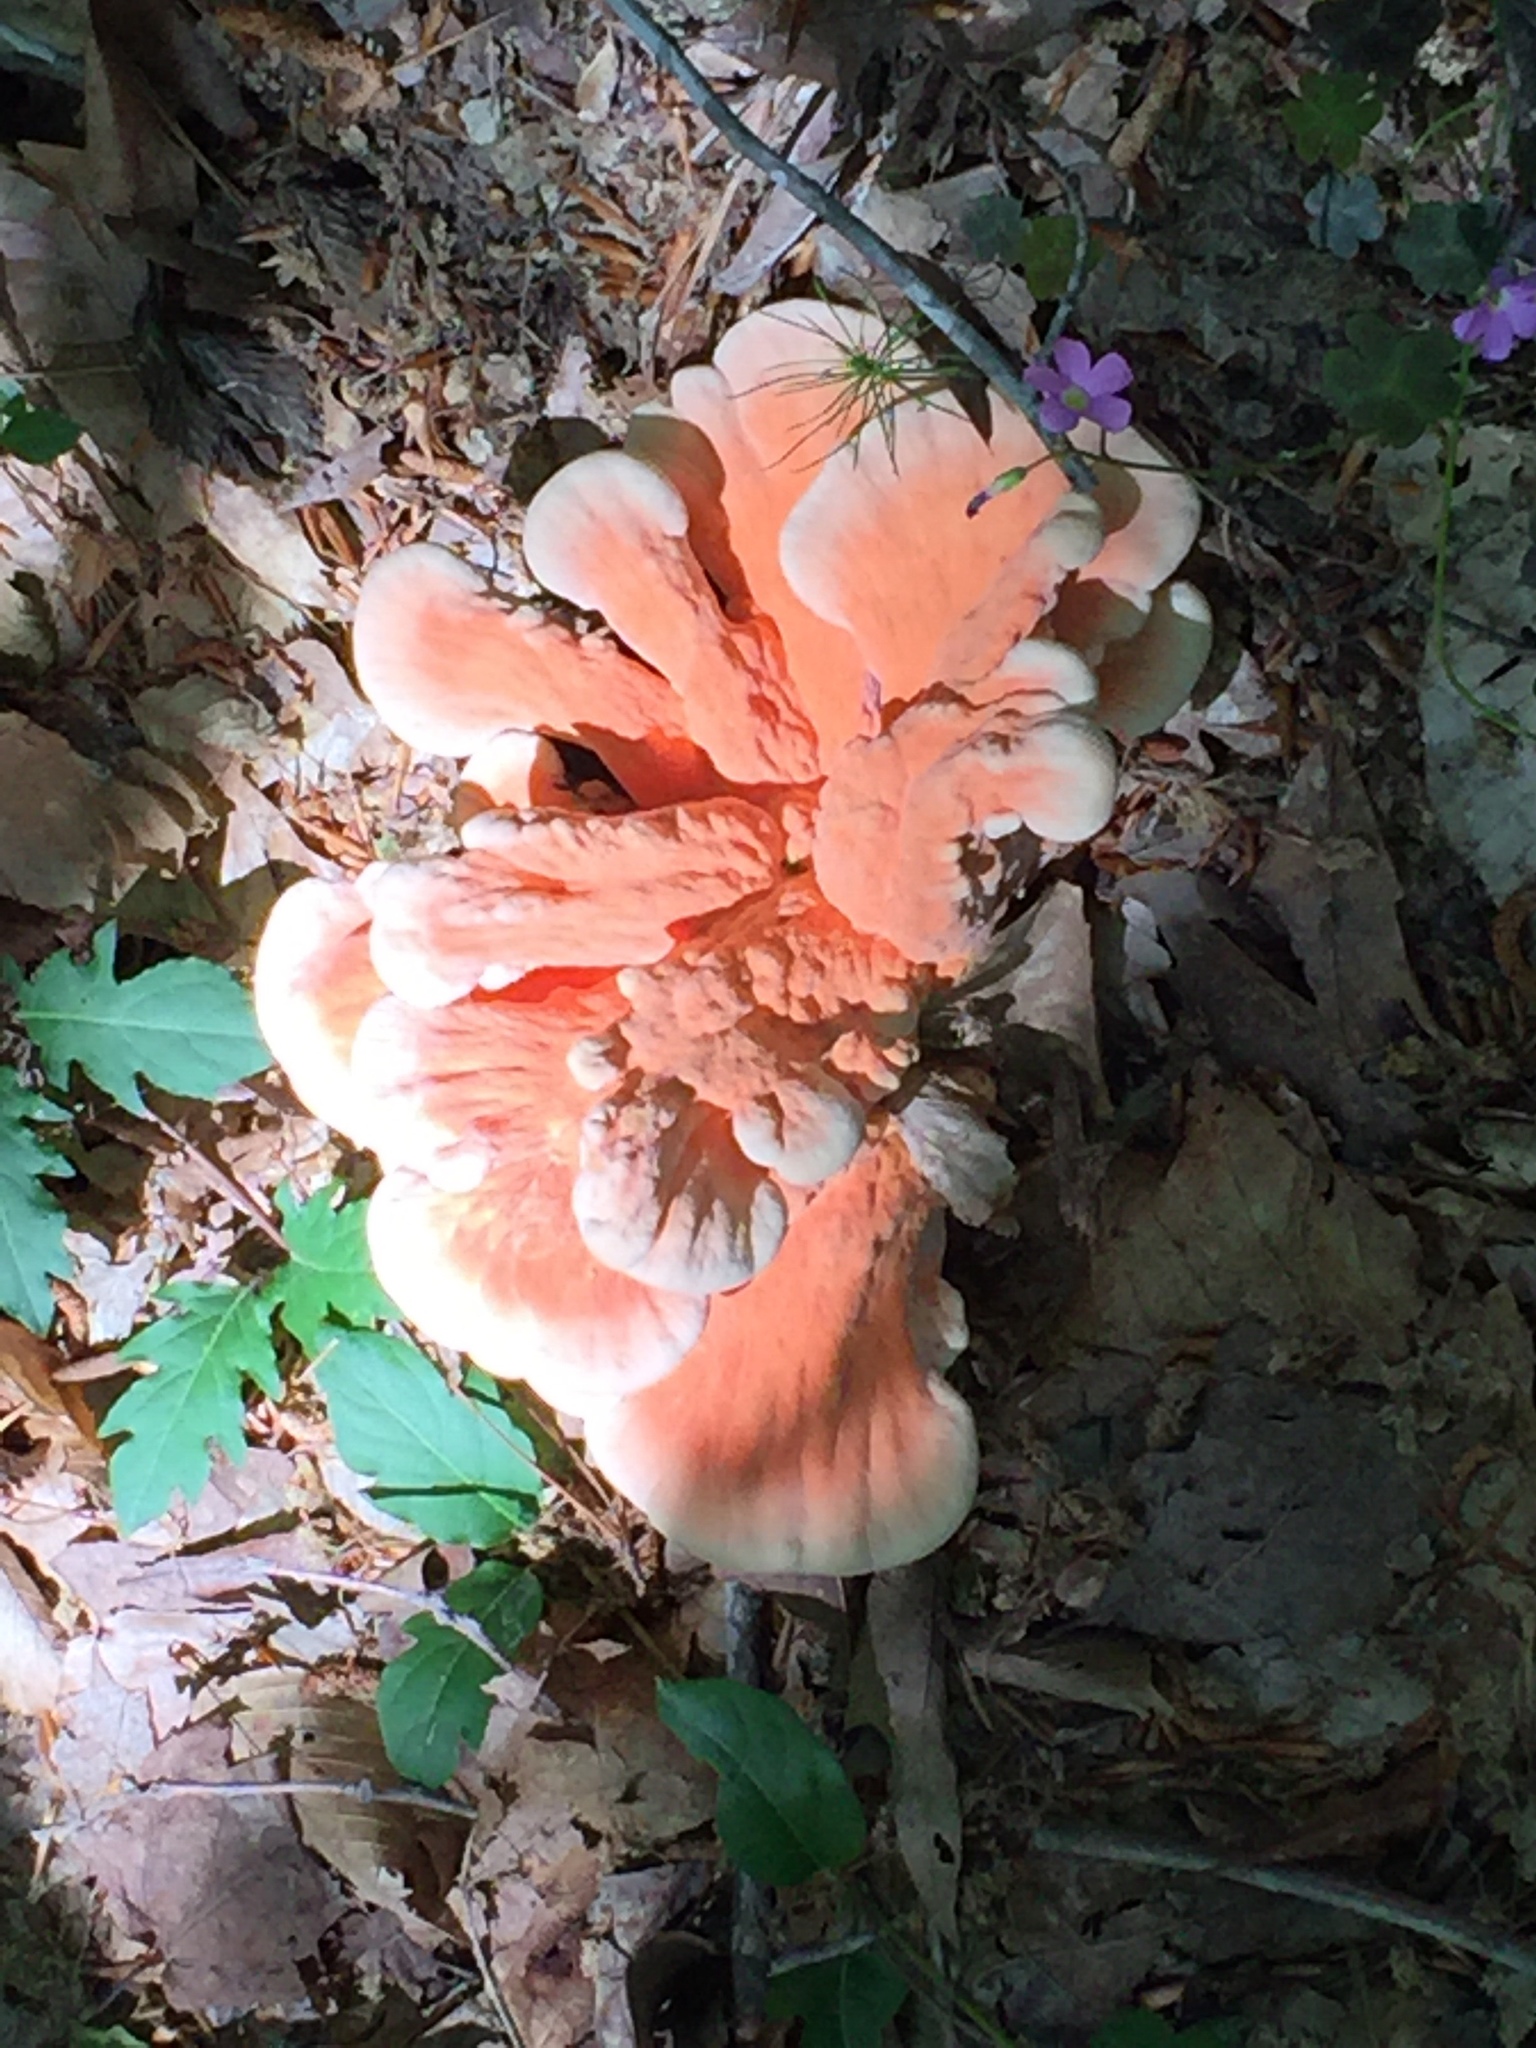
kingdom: Fungi
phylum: Basidiomycota
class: Agaricomycetes
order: Polyporales
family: Laetiporaceae
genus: Laetiporus
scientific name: Laetiporus sulphureus
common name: Chicken of the woods
